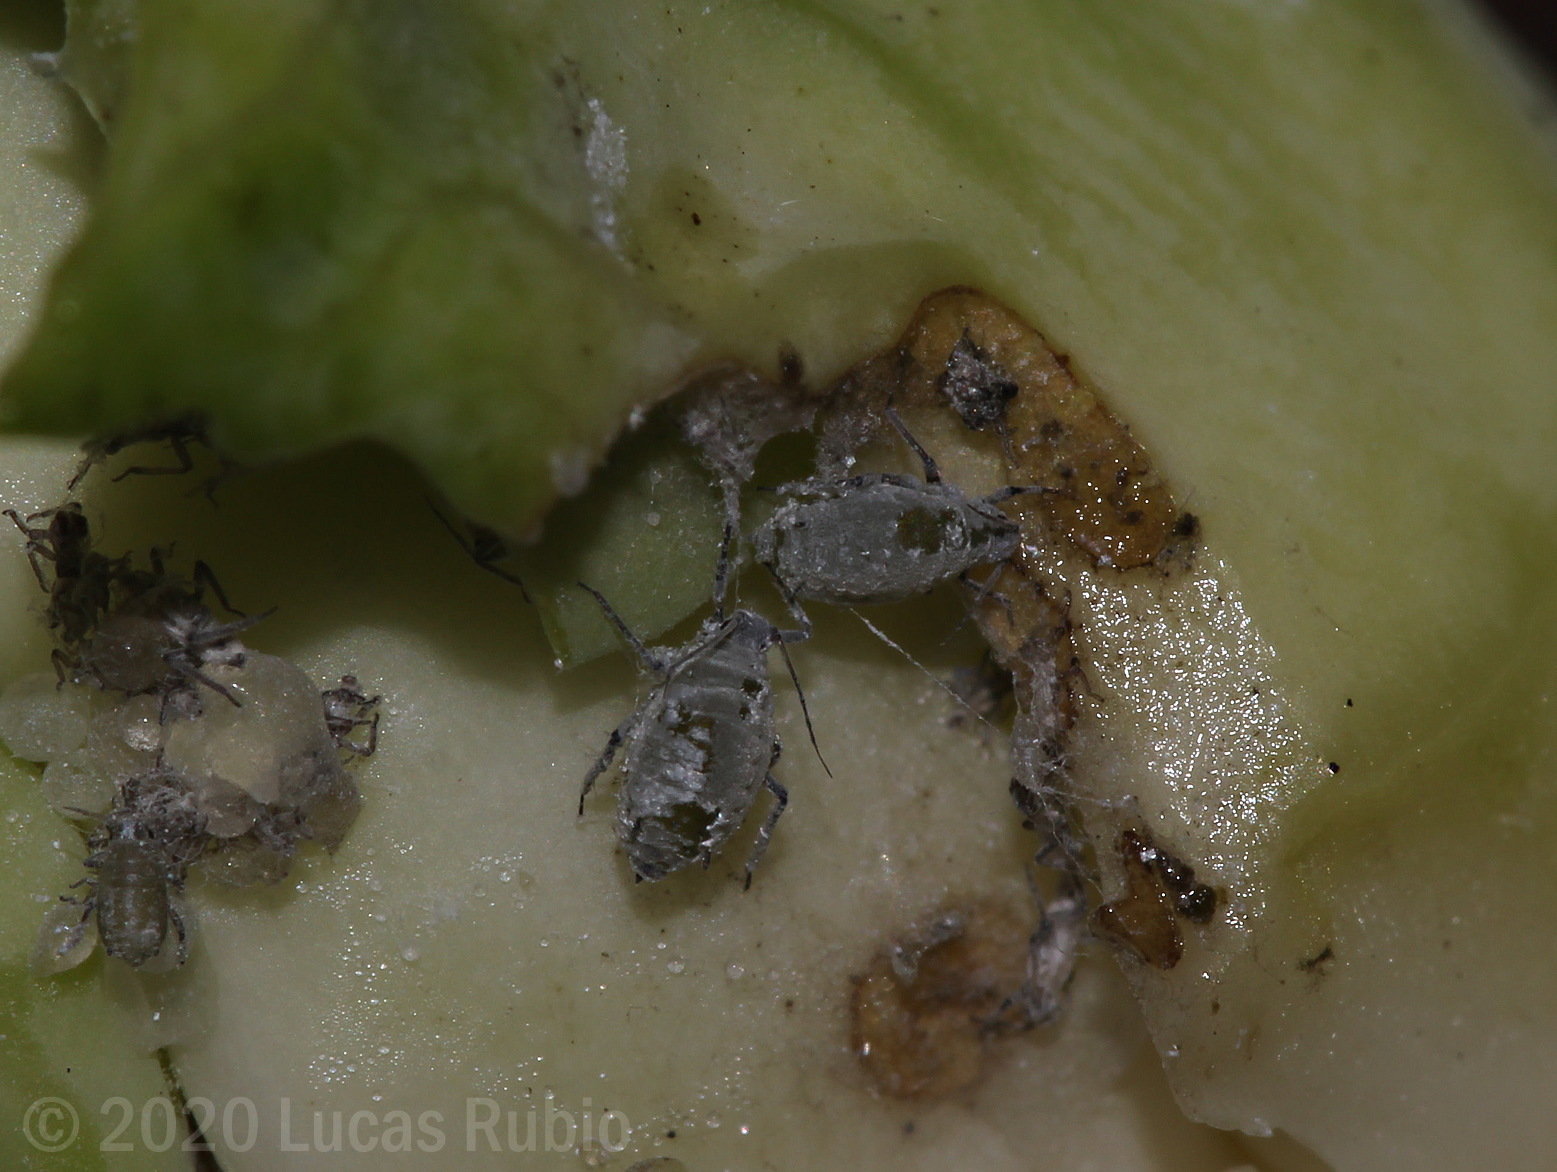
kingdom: Animalia
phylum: Arthropoda
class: Insecta
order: Hemiptera
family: Aphididae
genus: Brevicoryne
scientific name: Brevicoryne brassicae
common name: Cabbage aphid
